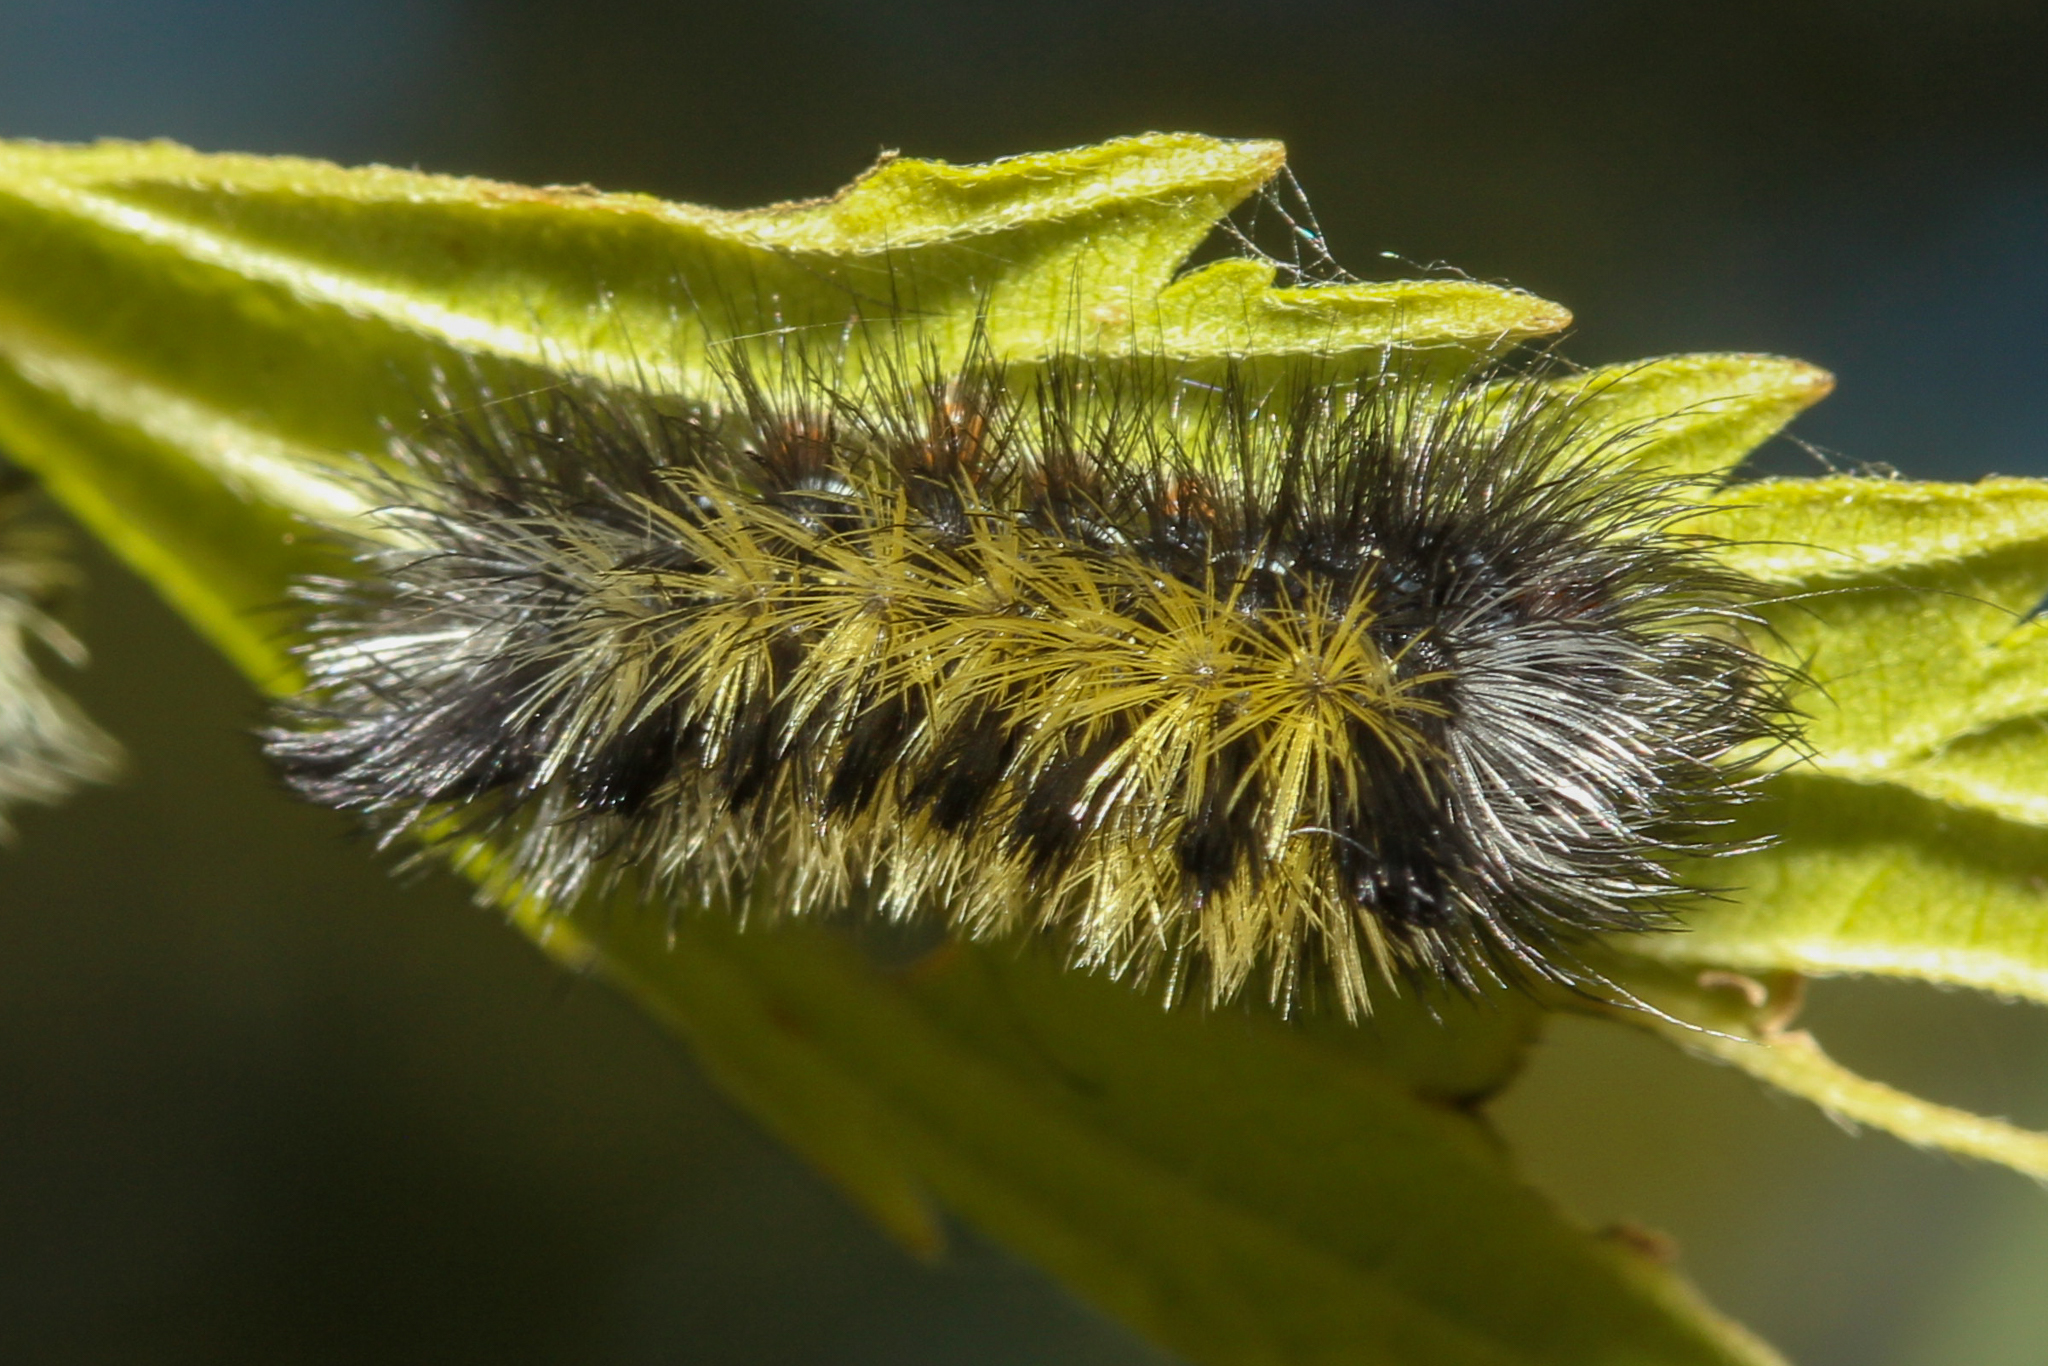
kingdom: Animalia
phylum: Arthropoda
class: Insecta
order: Lepidoptera
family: Erebidae
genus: Ctenucha
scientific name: Ctenucha virginica
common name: Virginia ctenucha moth
